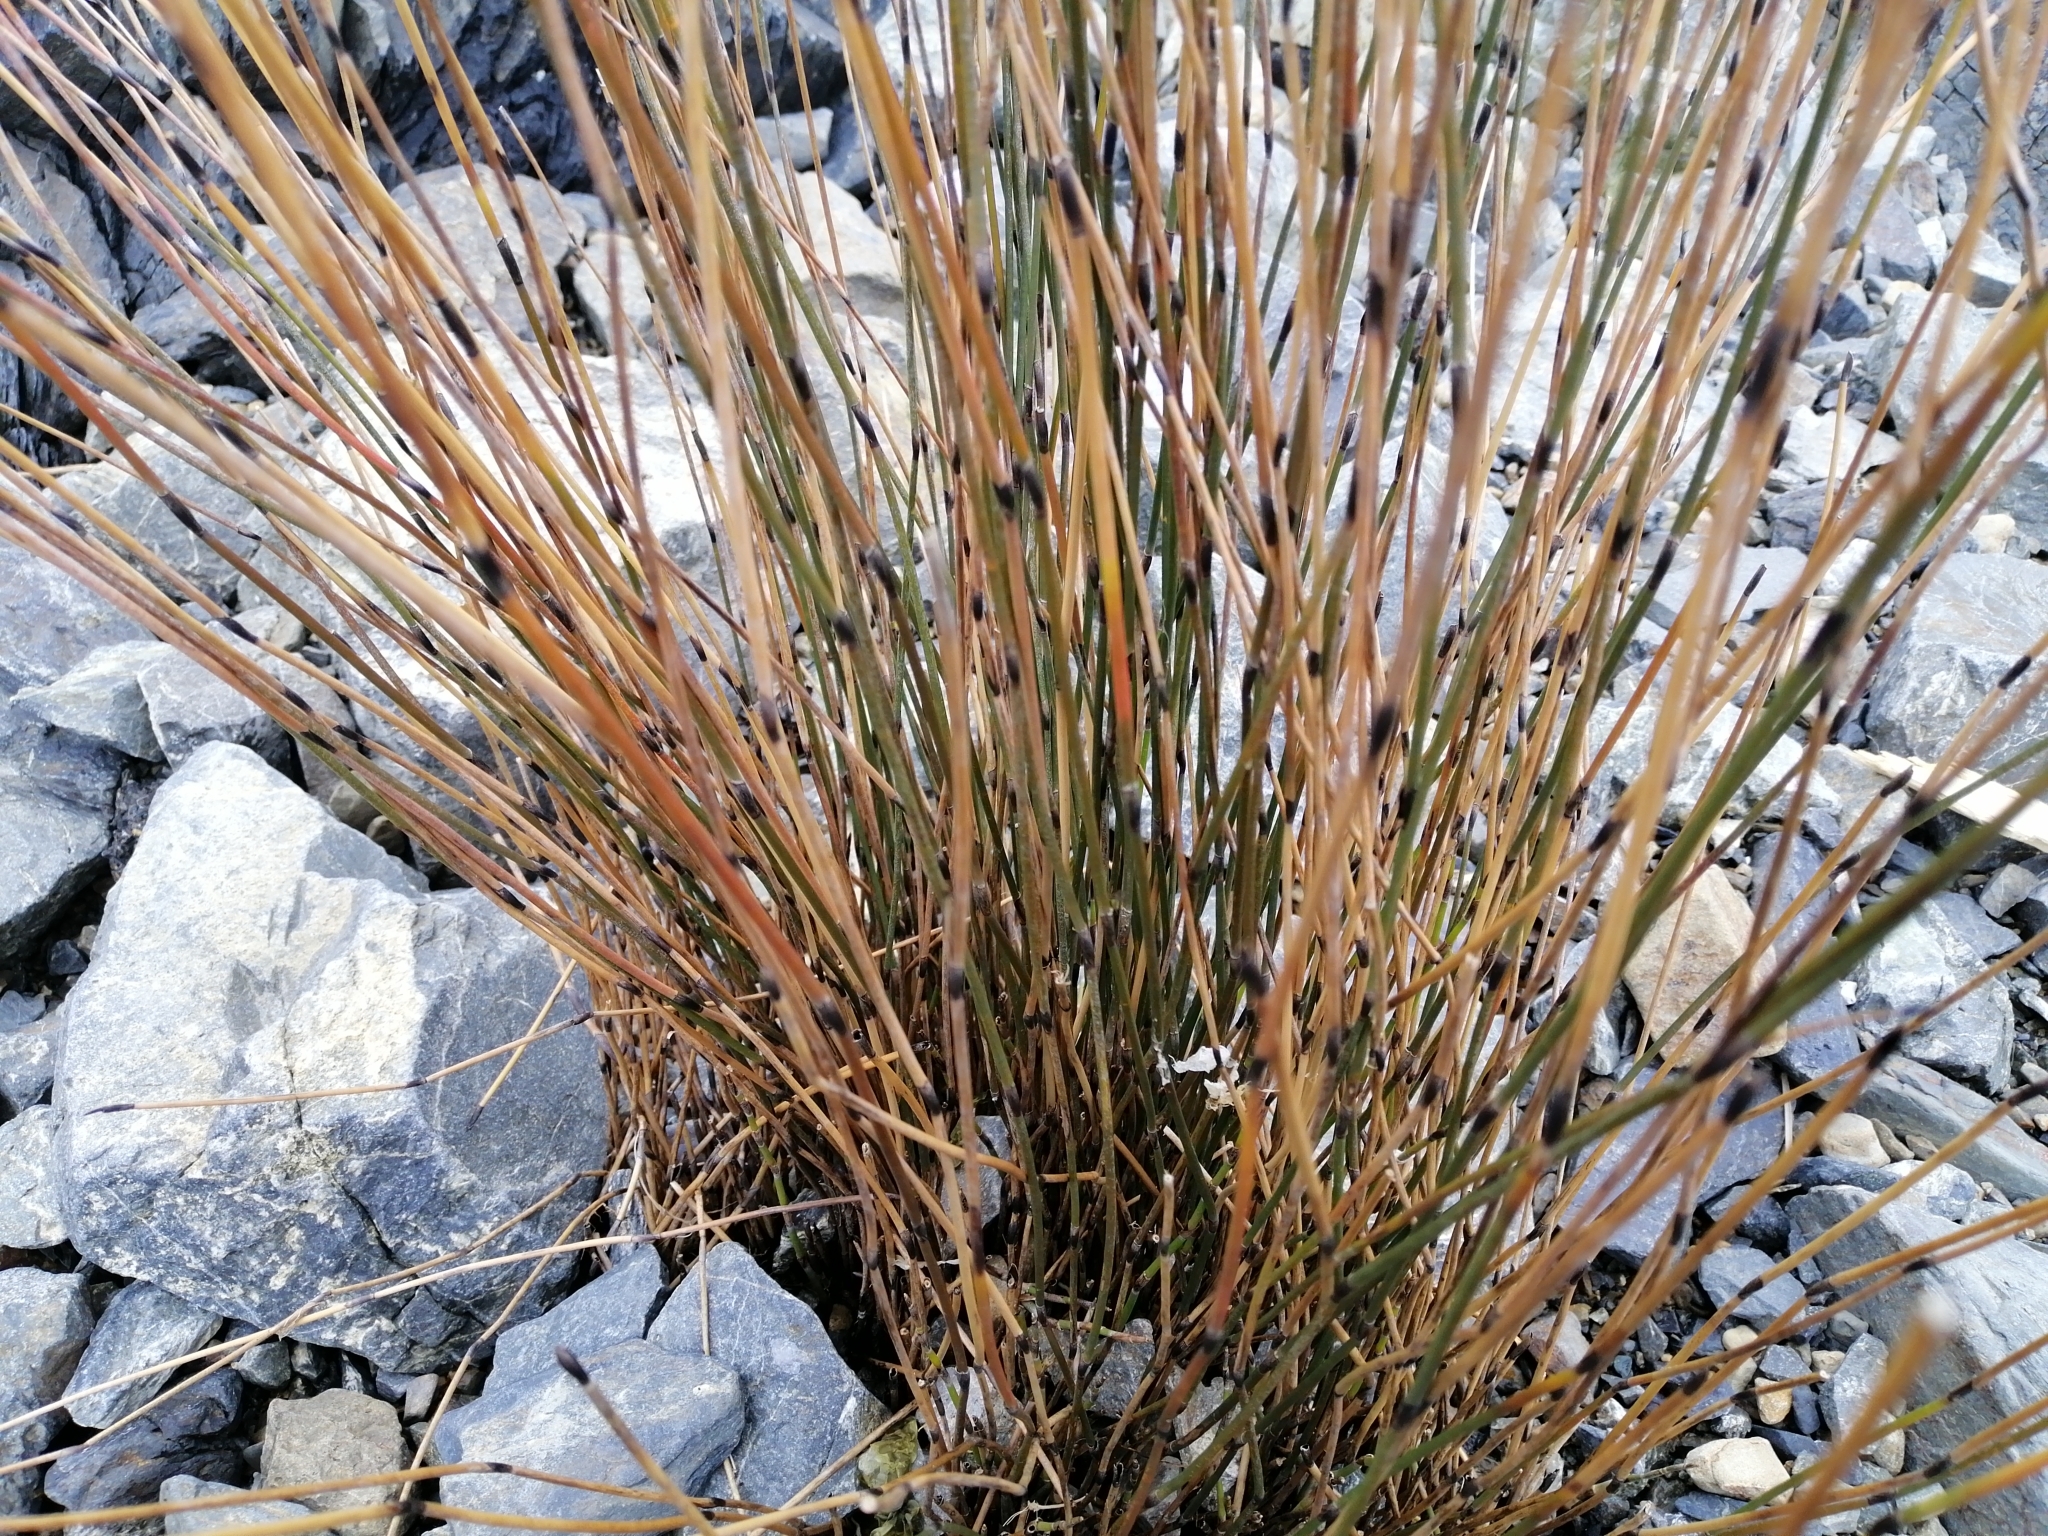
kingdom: Plantae
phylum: Tracheophyta
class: Liliopsida
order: Poales
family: Restionaceae
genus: Apodasmia
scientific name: Apodasmia similis
